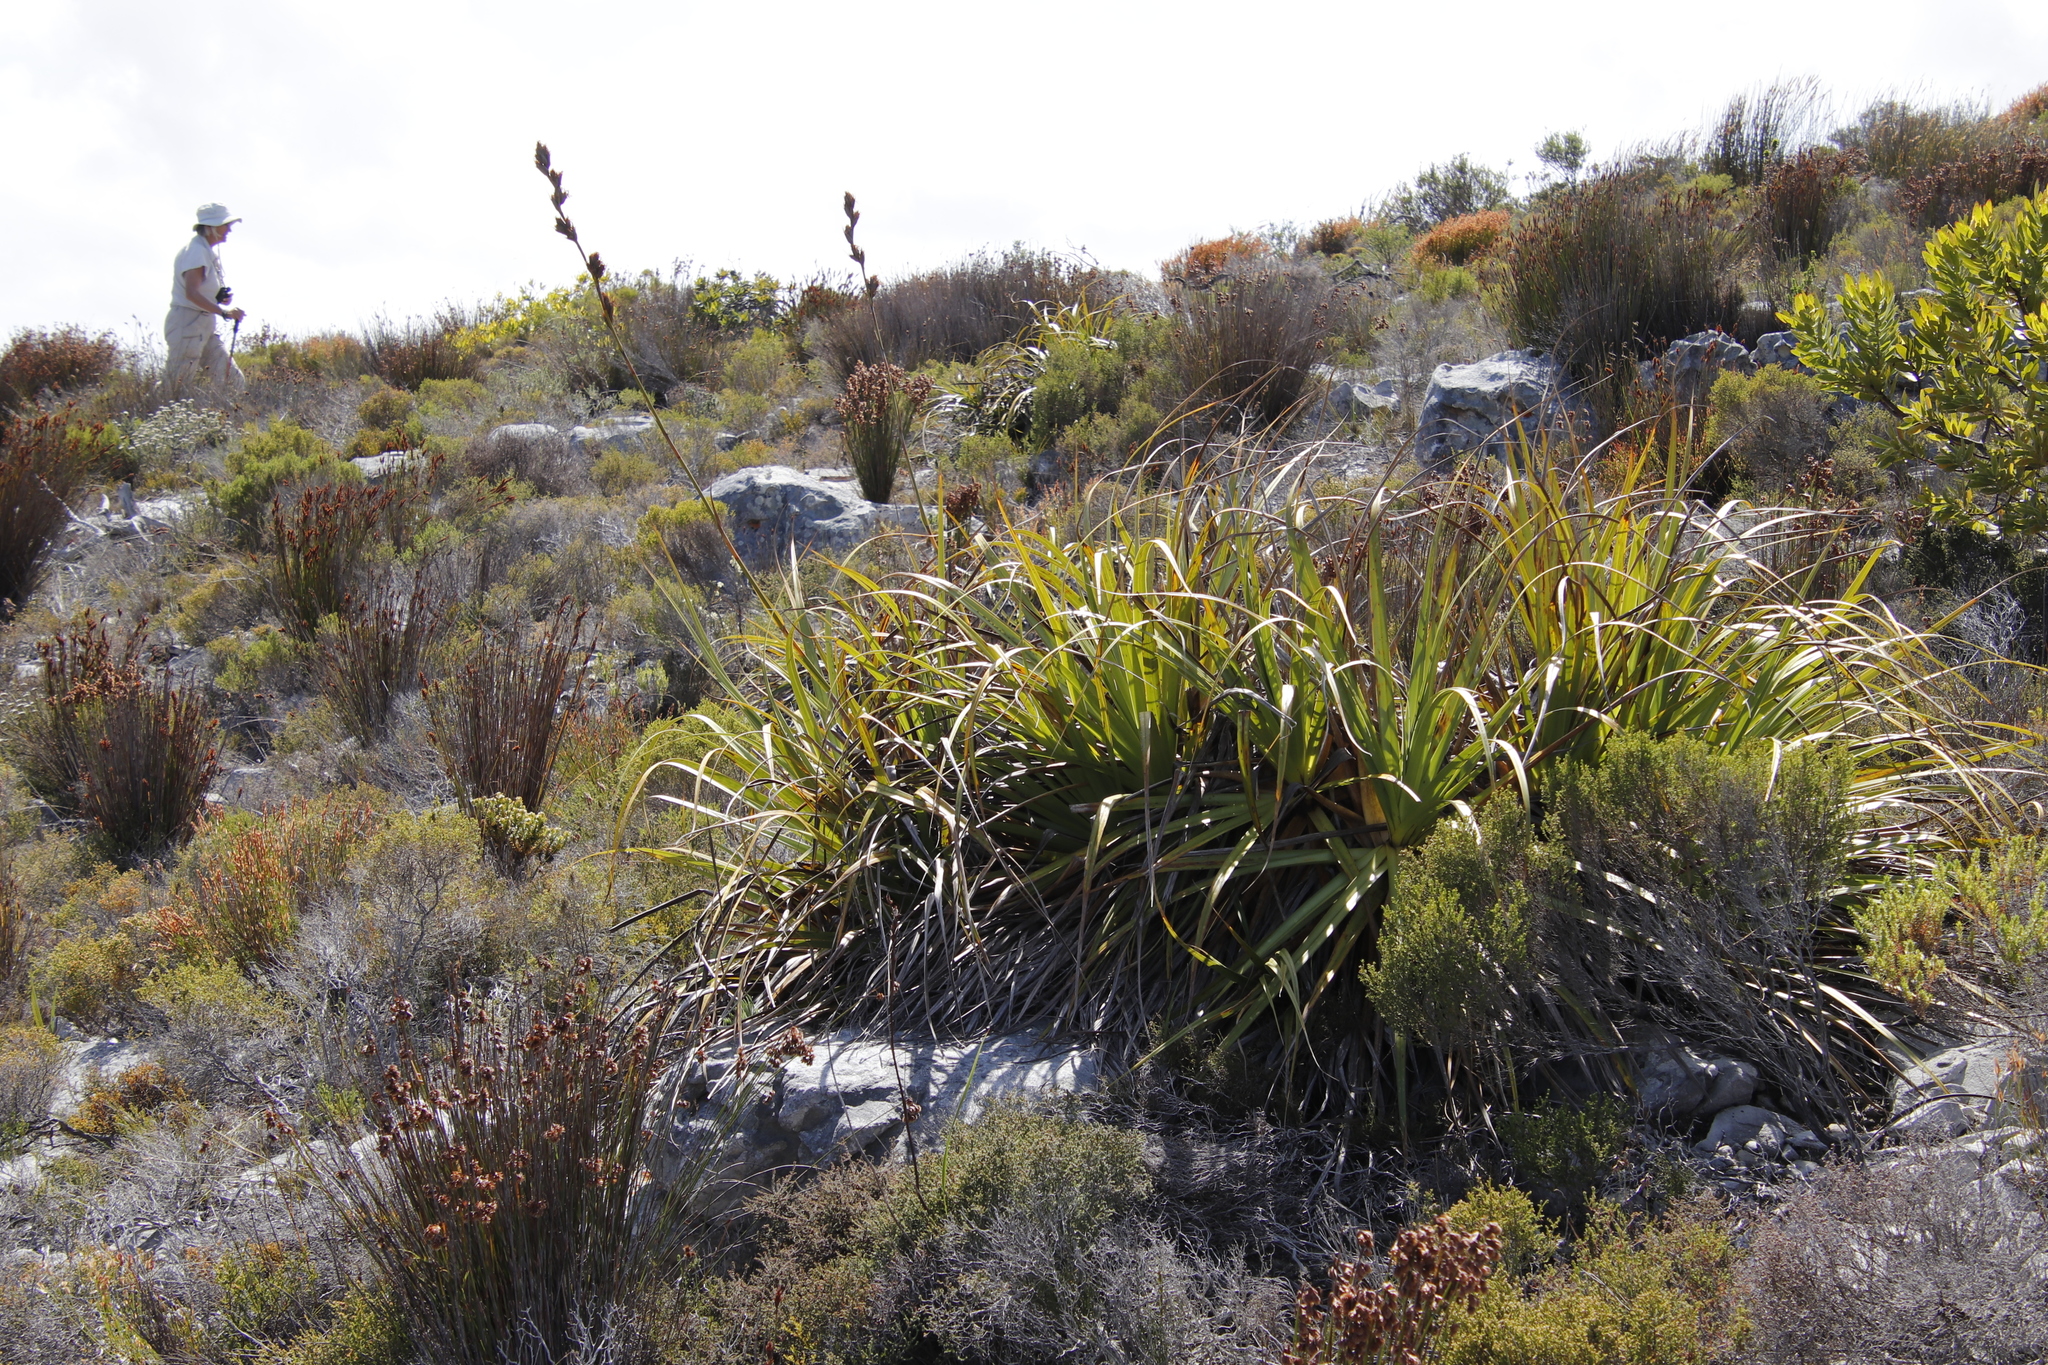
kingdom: Plantae
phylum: Tracheophyta
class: Liliopsida
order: Poales
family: Cyperaceae
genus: Tetraria
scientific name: Tetraria thermalis
